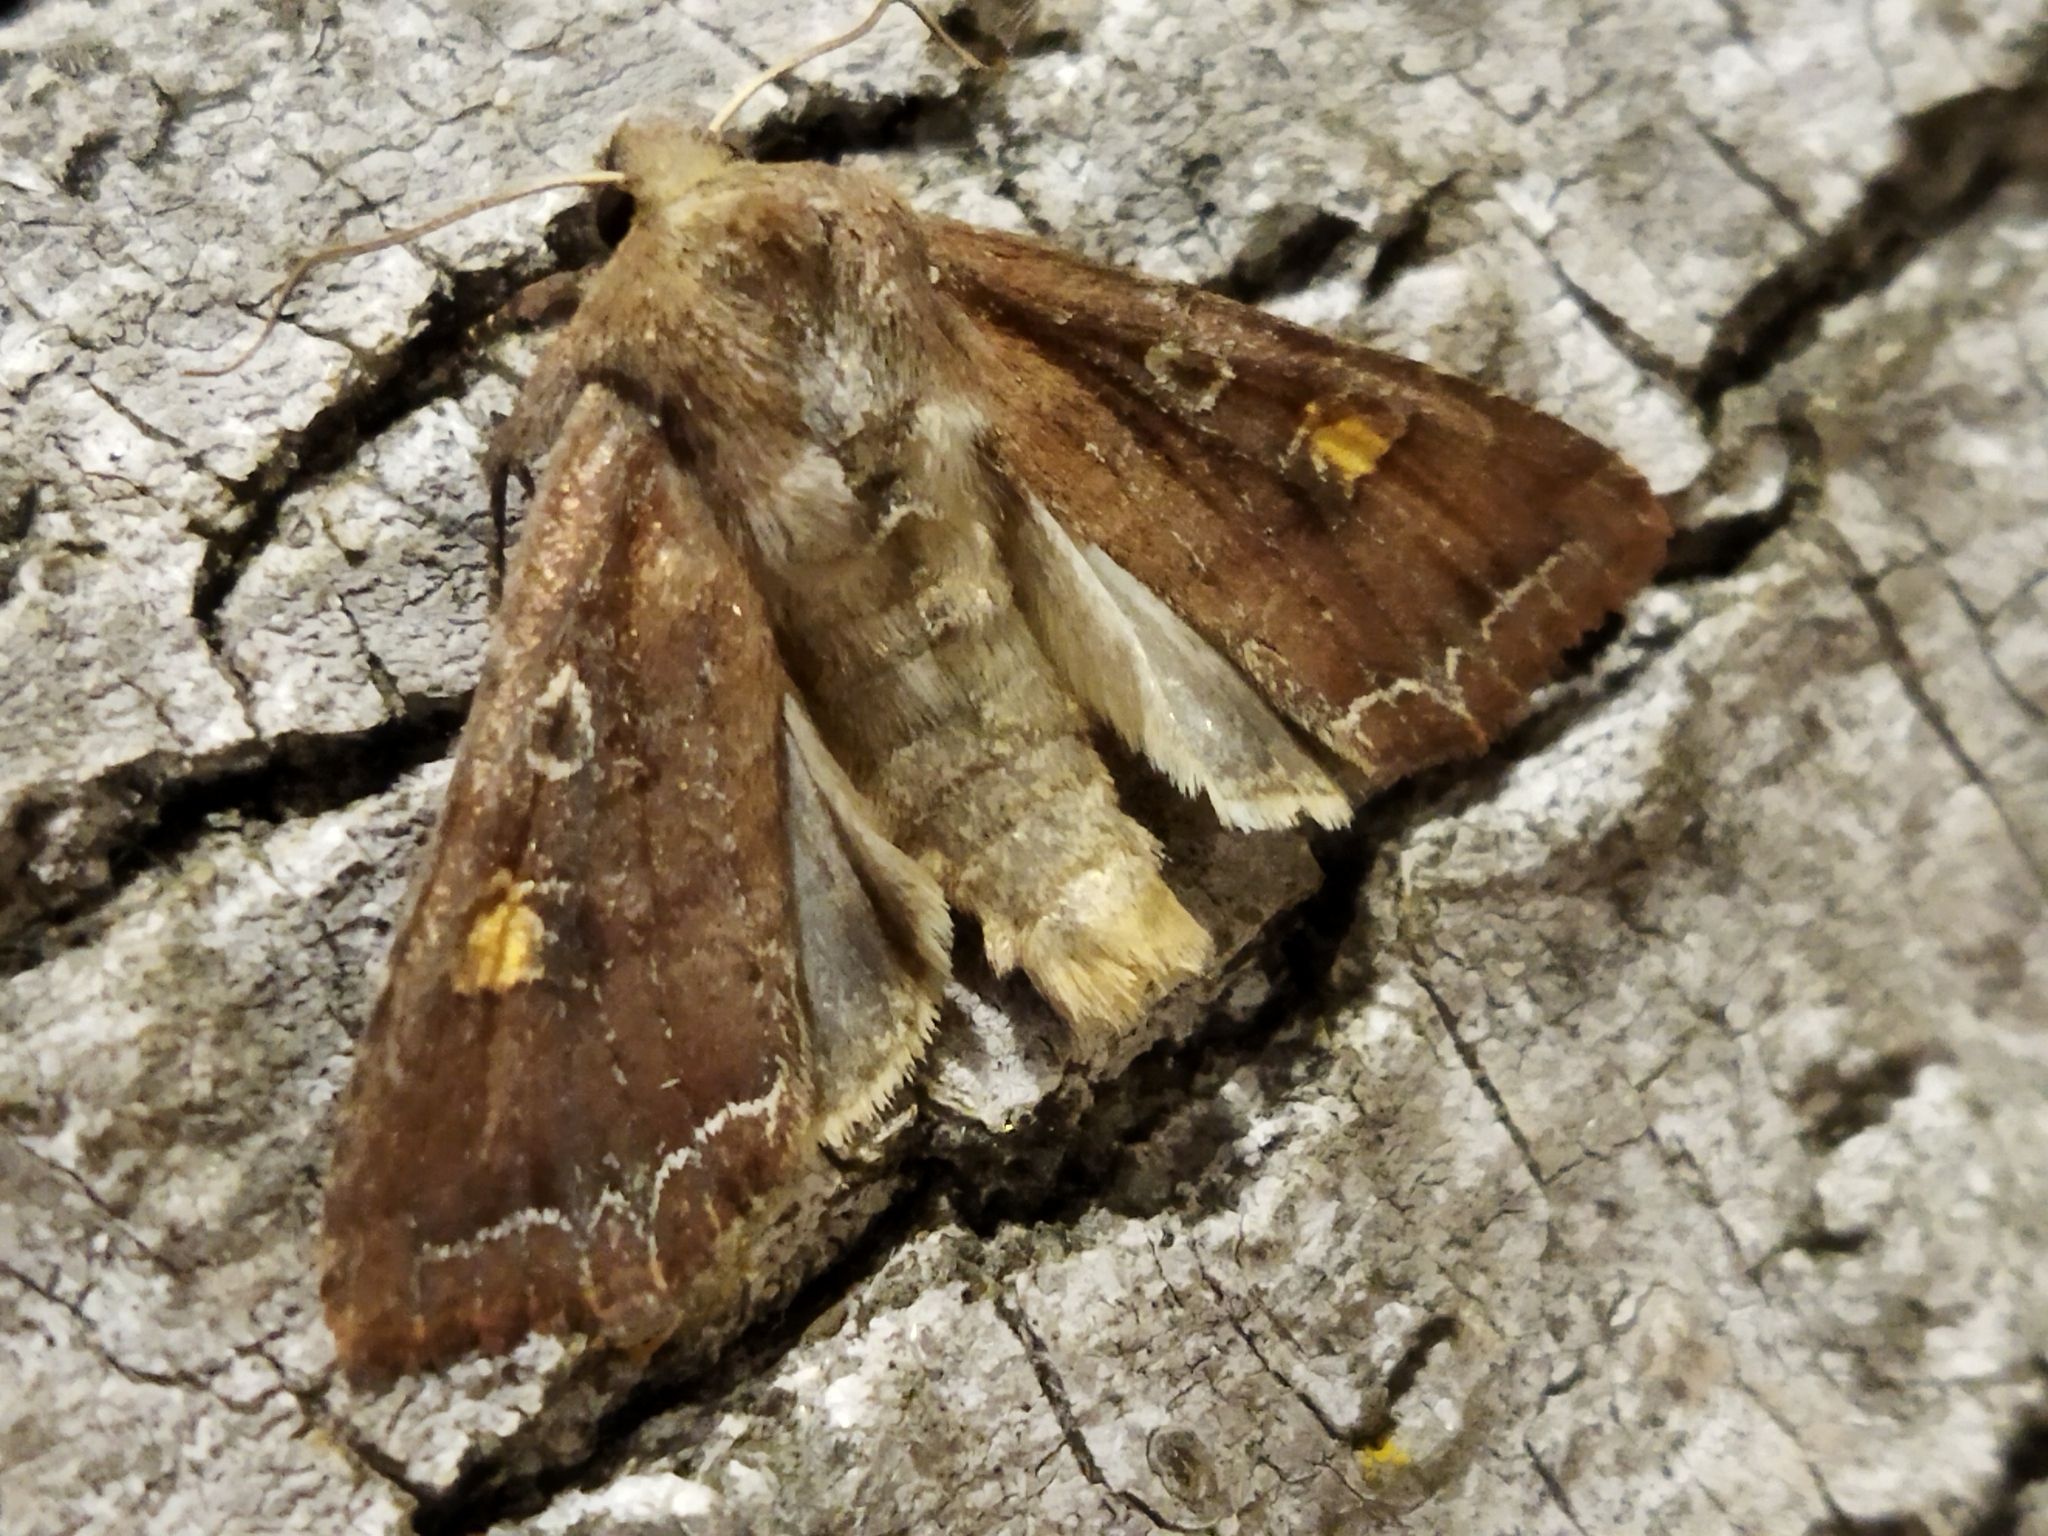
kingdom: Animalia
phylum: Arthropoda
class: Insecta
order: Lepidoptera
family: Noctuidae
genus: Lacanobia
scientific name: Lacanobia oleracea
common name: Bright-line brown-eye
